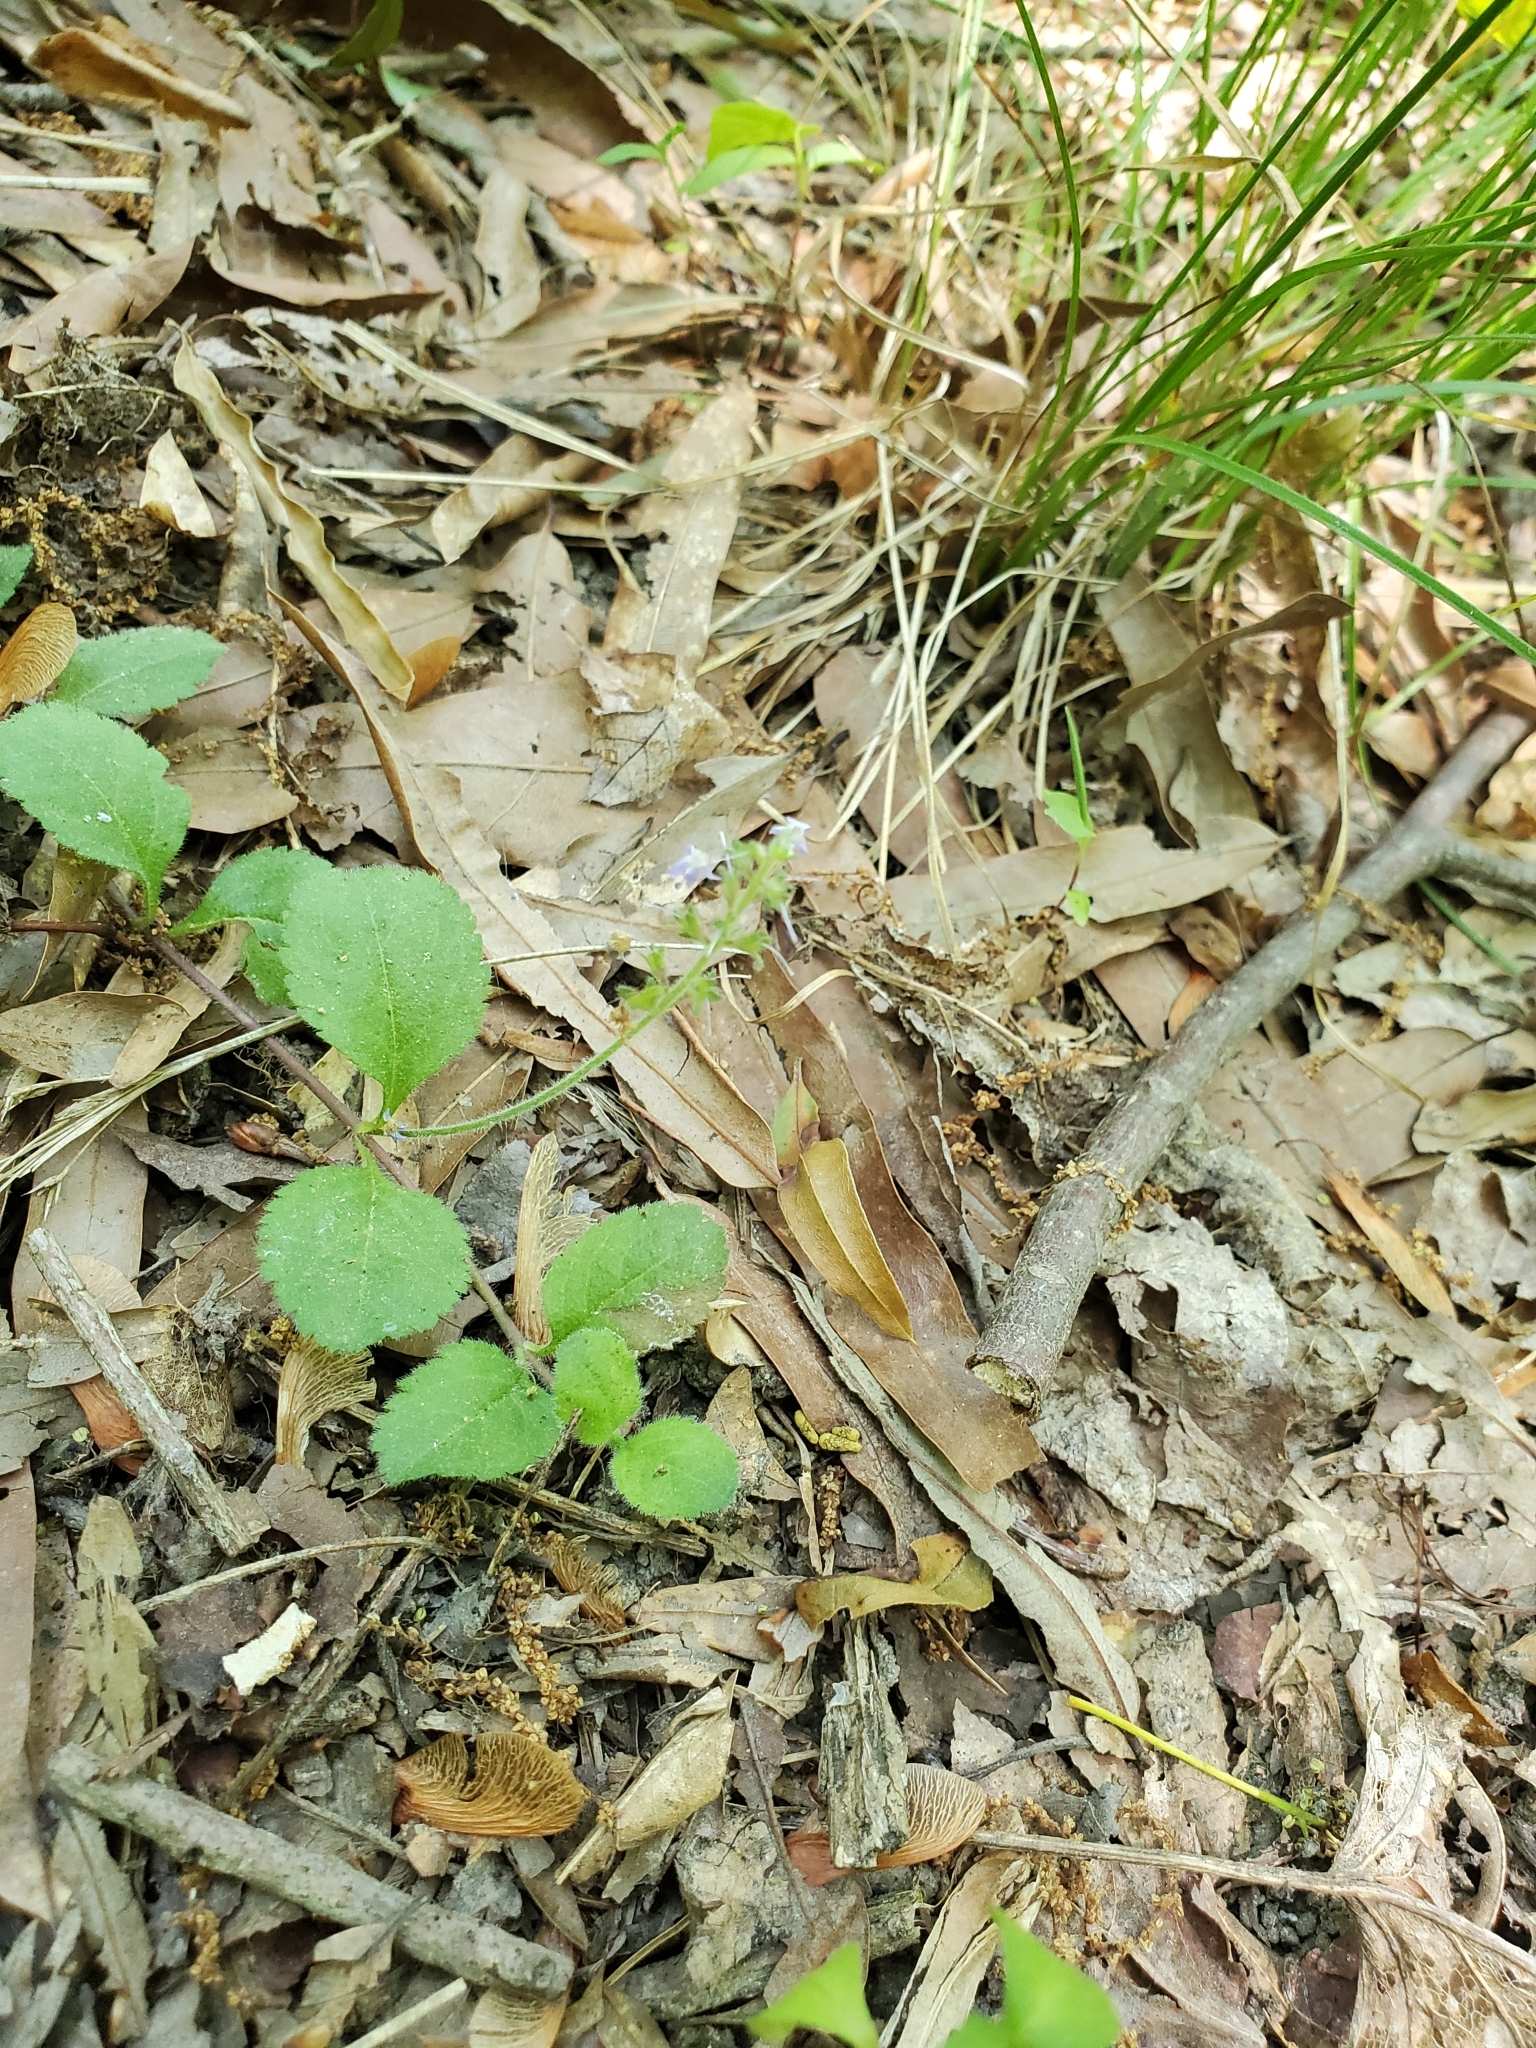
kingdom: Plantae
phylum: Tracheophyta
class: Magnoliopsida
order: Lamiales
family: Plantaginaceae
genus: Veronica
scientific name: Veronica officinalis
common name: Common speedwell
